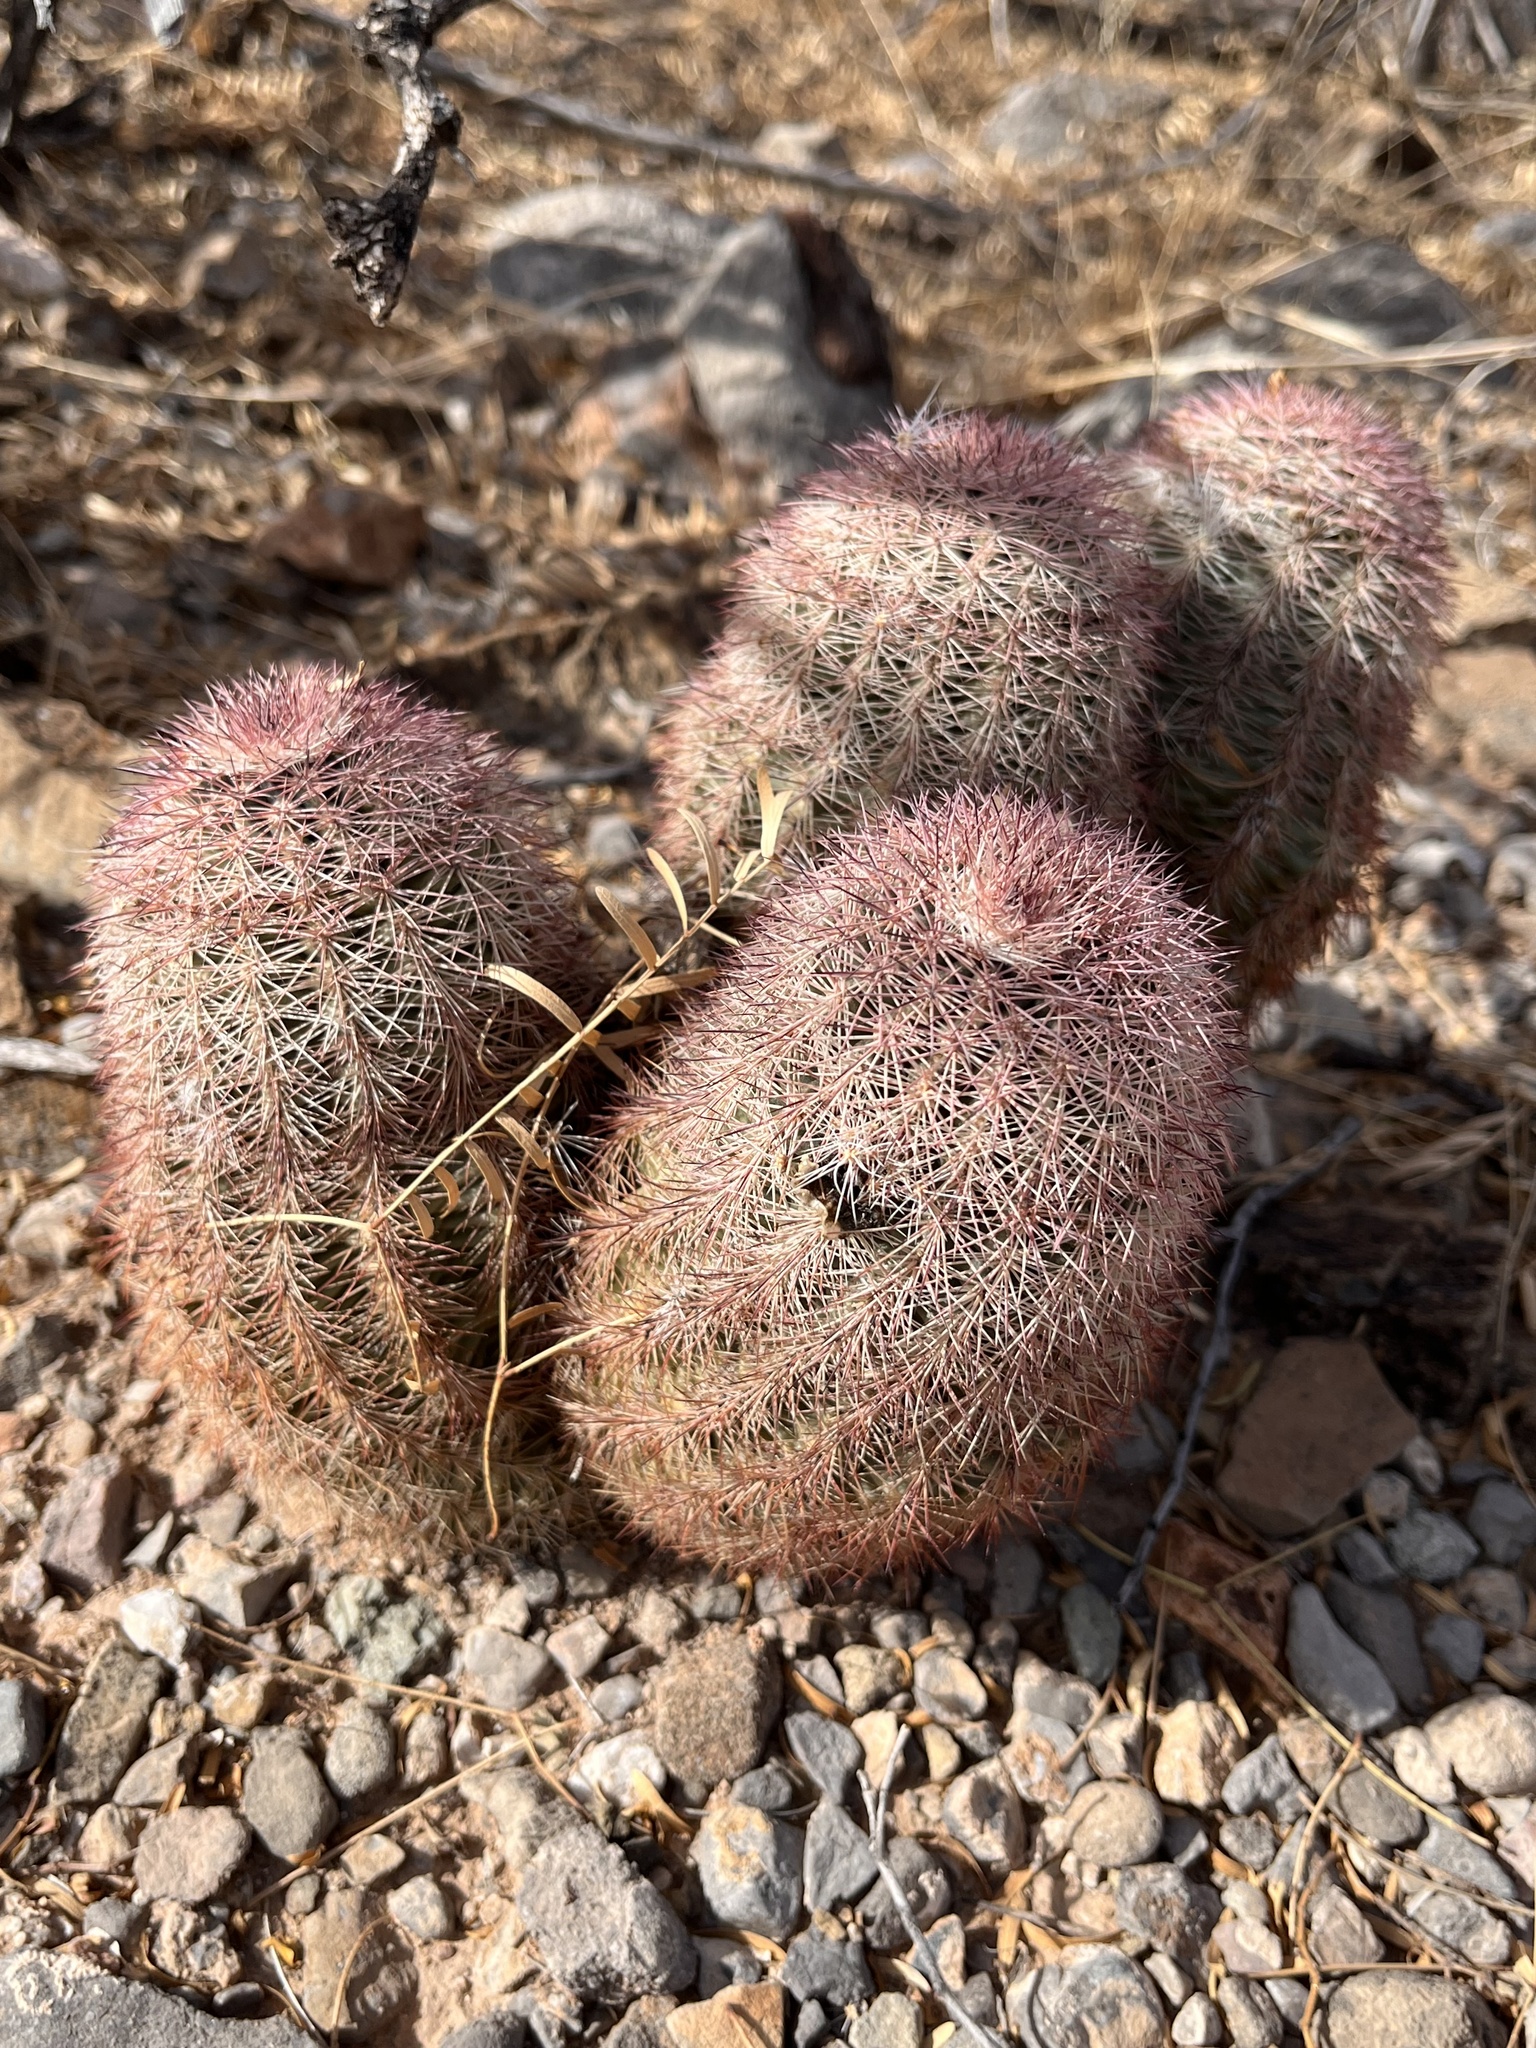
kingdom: Plantae
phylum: Tracheophyta
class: Magnoliopsida
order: Caryophyllales
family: Cactaceae
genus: Echinocereus
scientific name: Echinocereus dasyacanthus
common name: Spiny hedgehog cactus
